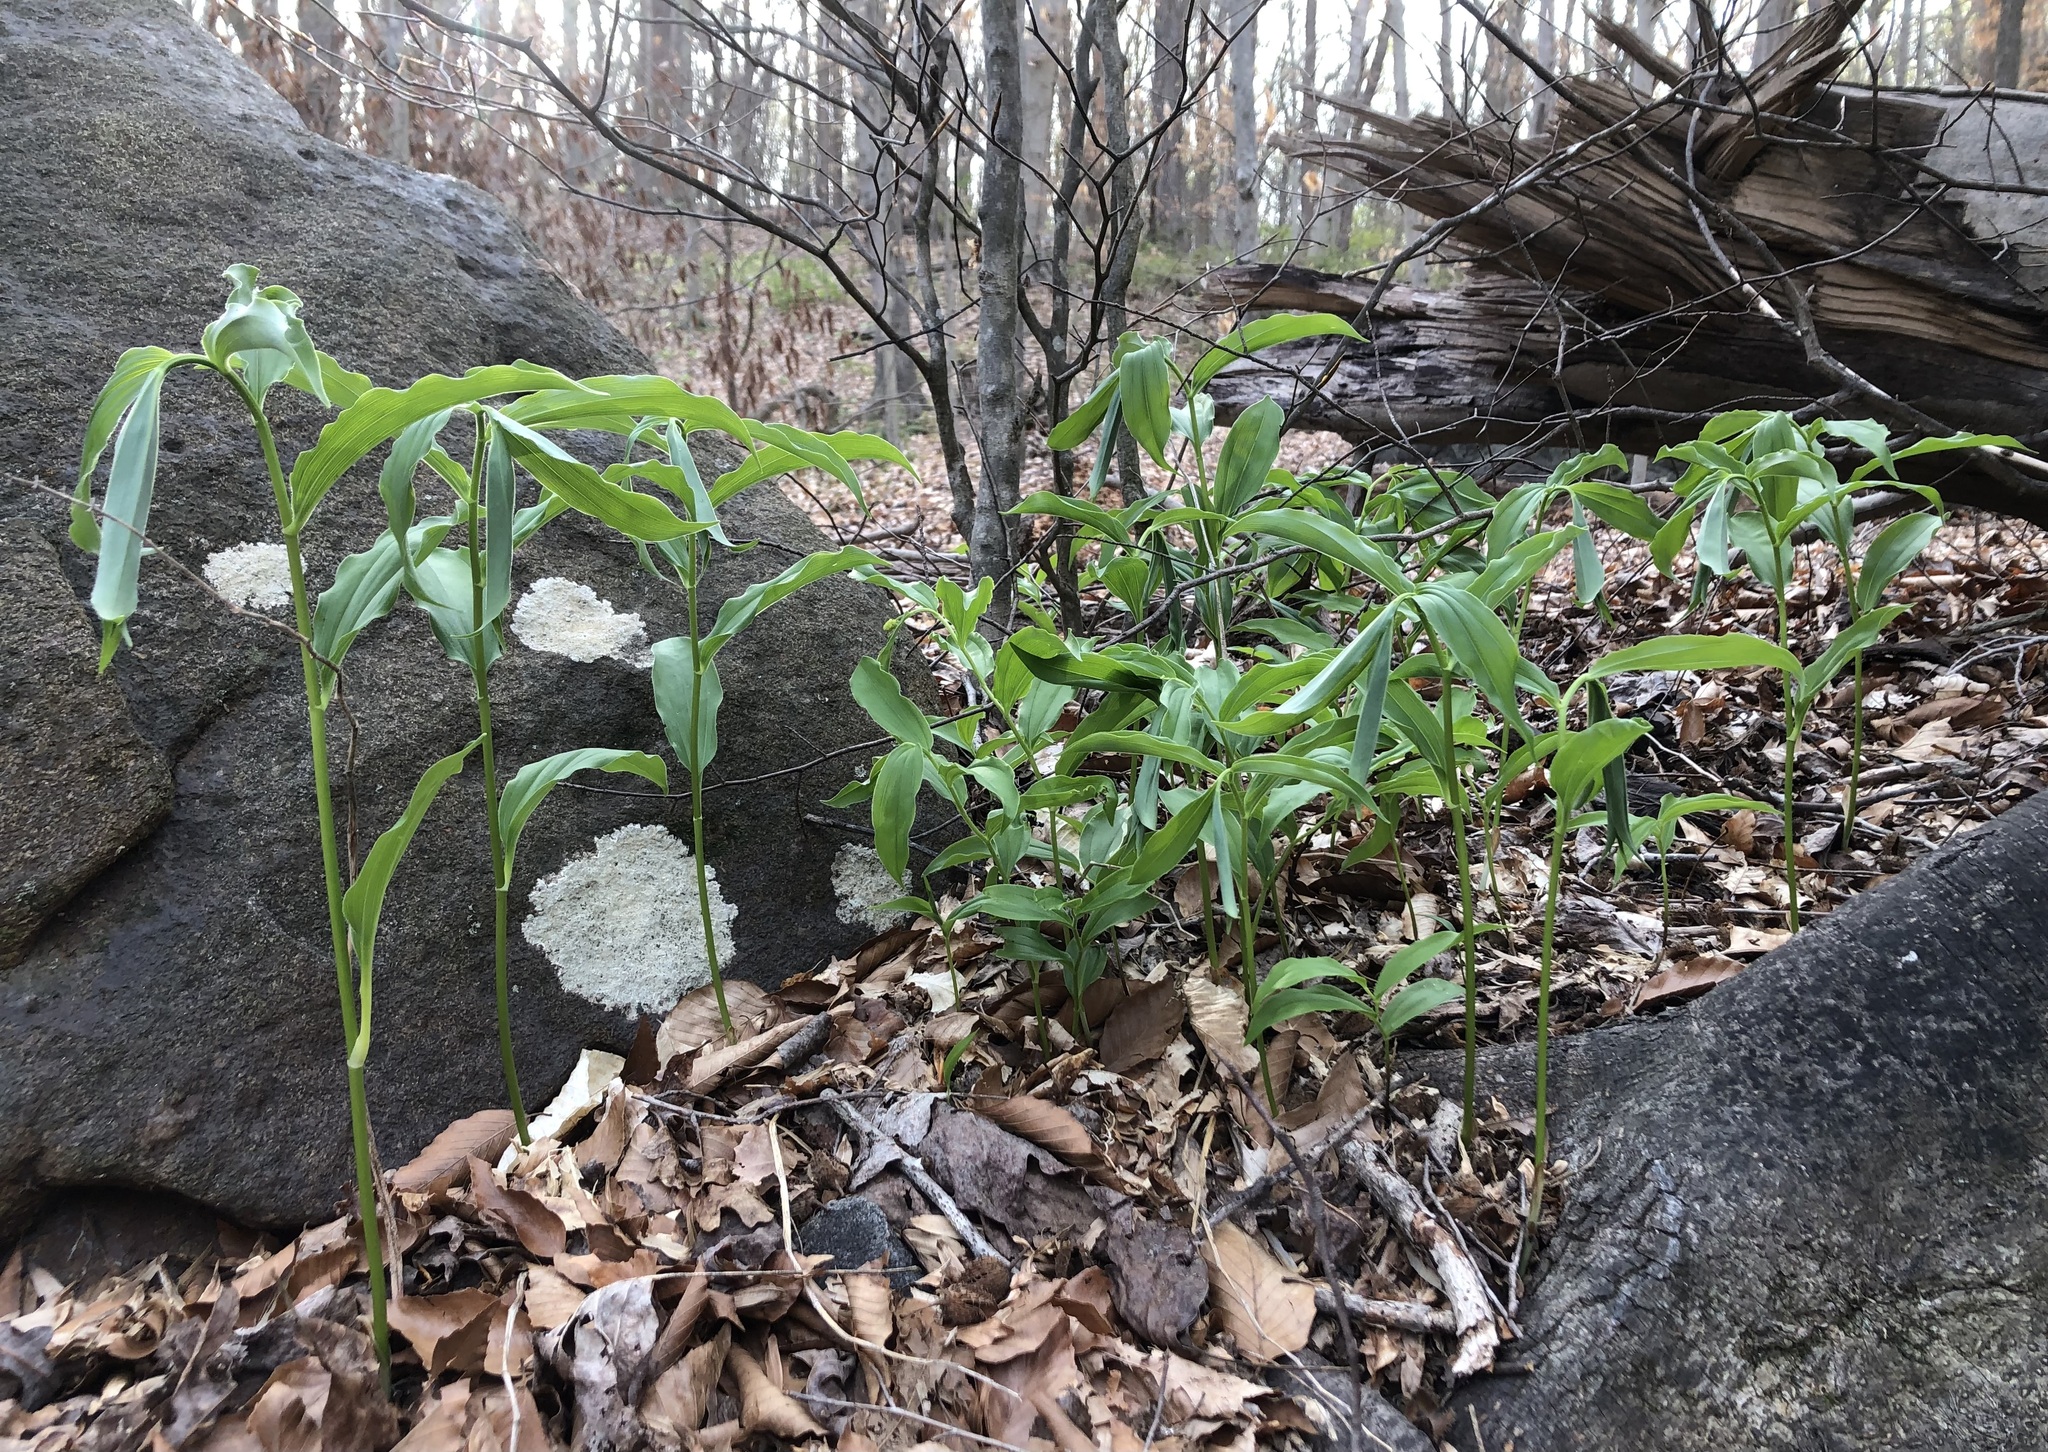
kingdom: Plantae
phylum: Tracheophyta
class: Liliopsida
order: Asparagales
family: Asparagaceae
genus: Maianthemum
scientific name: Maianthemum racemosum
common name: False spikenard
